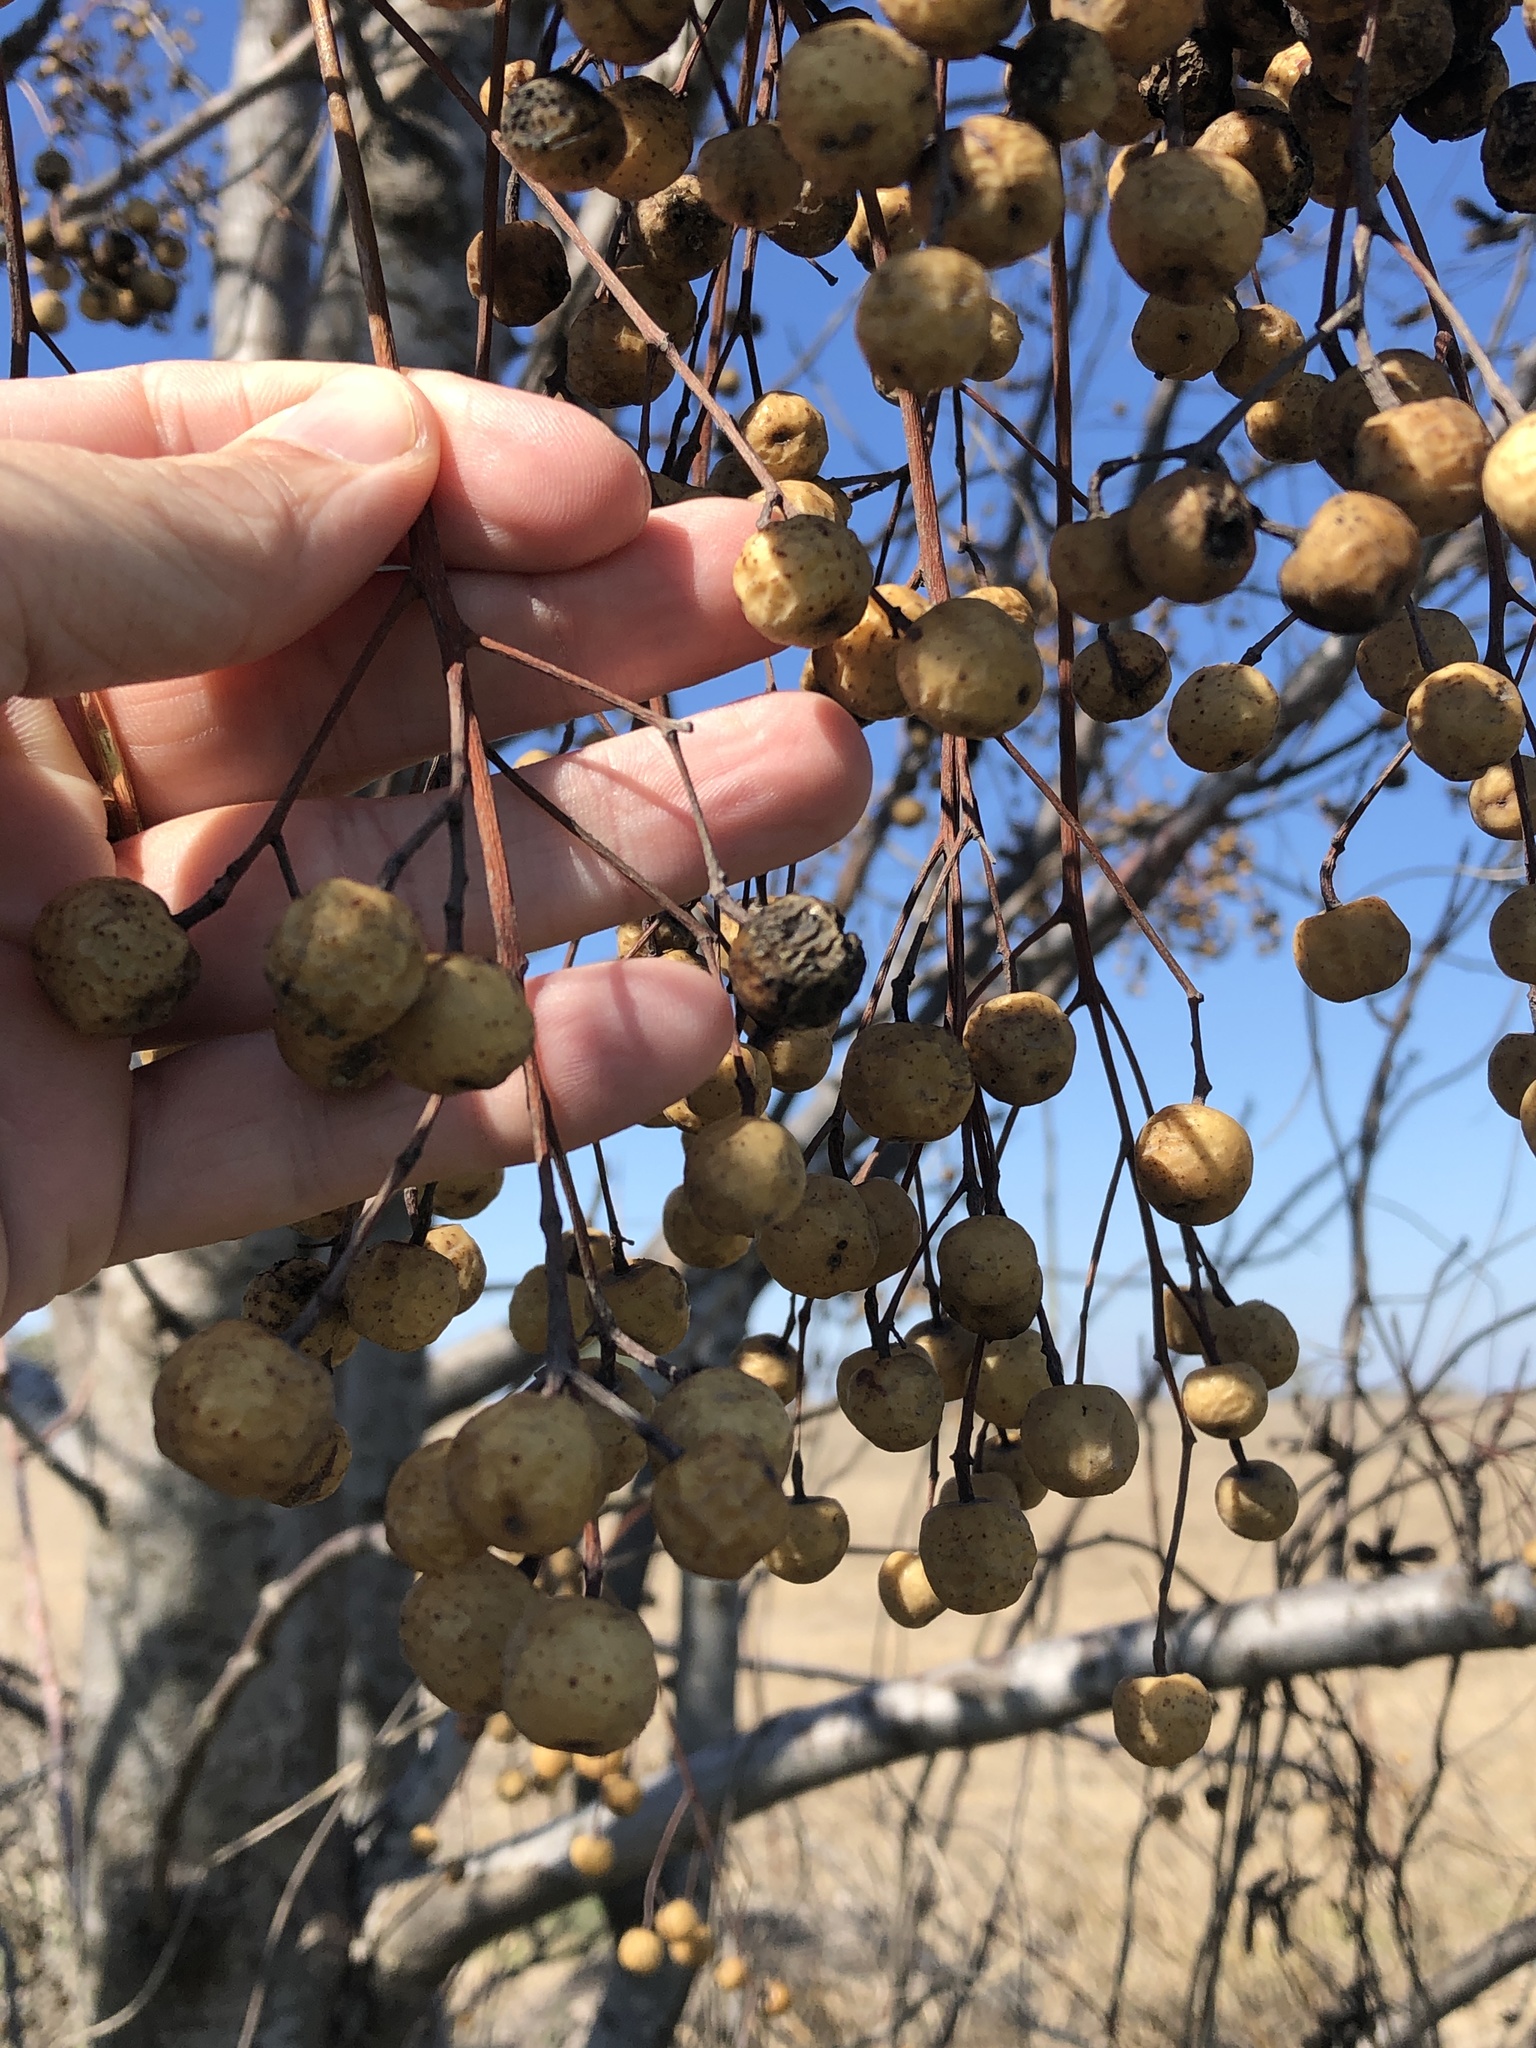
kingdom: Plantae
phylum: Tracheophyta
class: Magnoliopsida
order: Sapindales
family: Meliaceae
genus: Melia
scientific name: Melia azedarach
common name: Chinaberrytree
